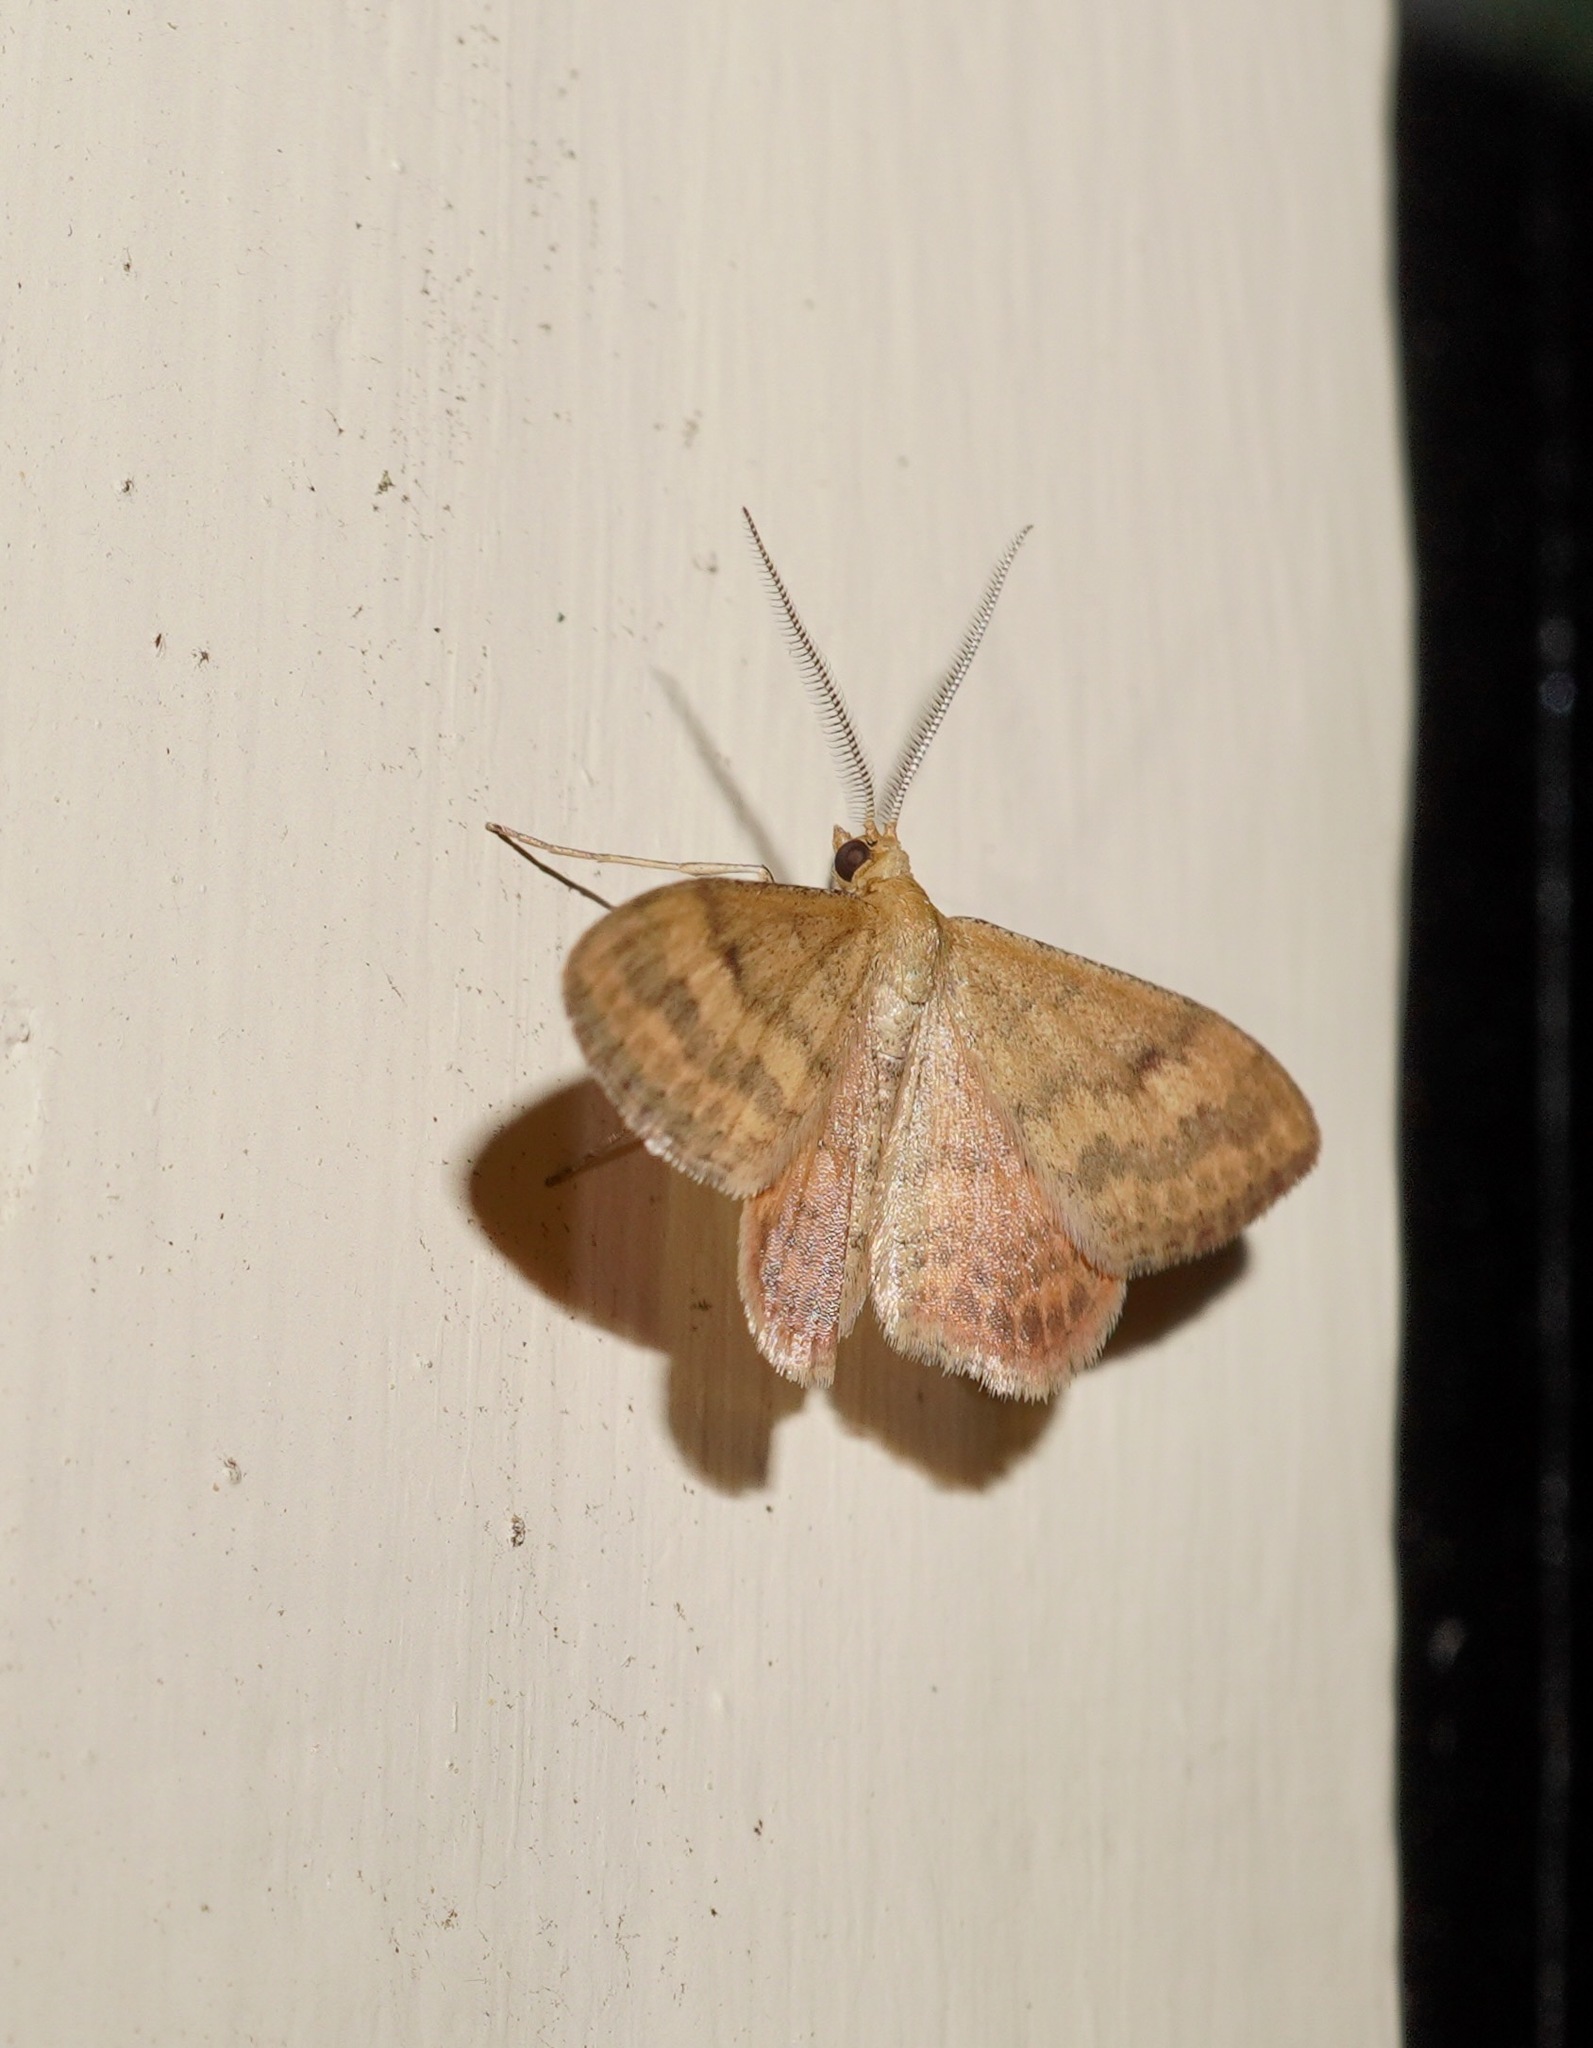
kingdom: Animalia
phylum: Arthropoda
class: Insecta
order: Lepidoptera
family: Geometridae
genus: Scopula
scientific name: Scopula rubraria
